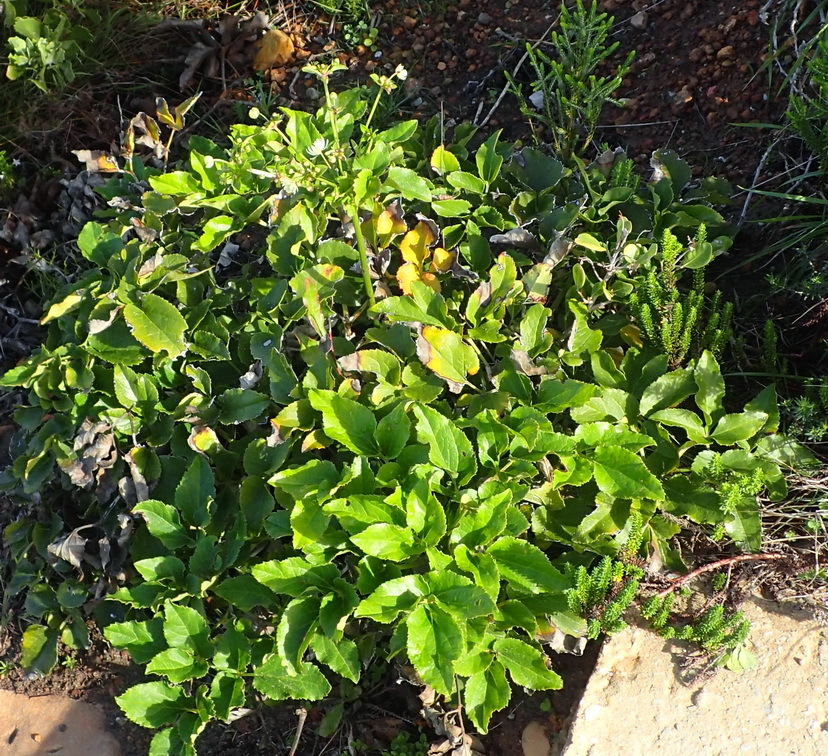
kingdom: Plantae
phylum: Tracheophyta
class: Magnoliopsida
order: Ranunculales
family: Ranunculaceae
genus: Knowltonia
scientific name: Knowltonia vesicatoria
